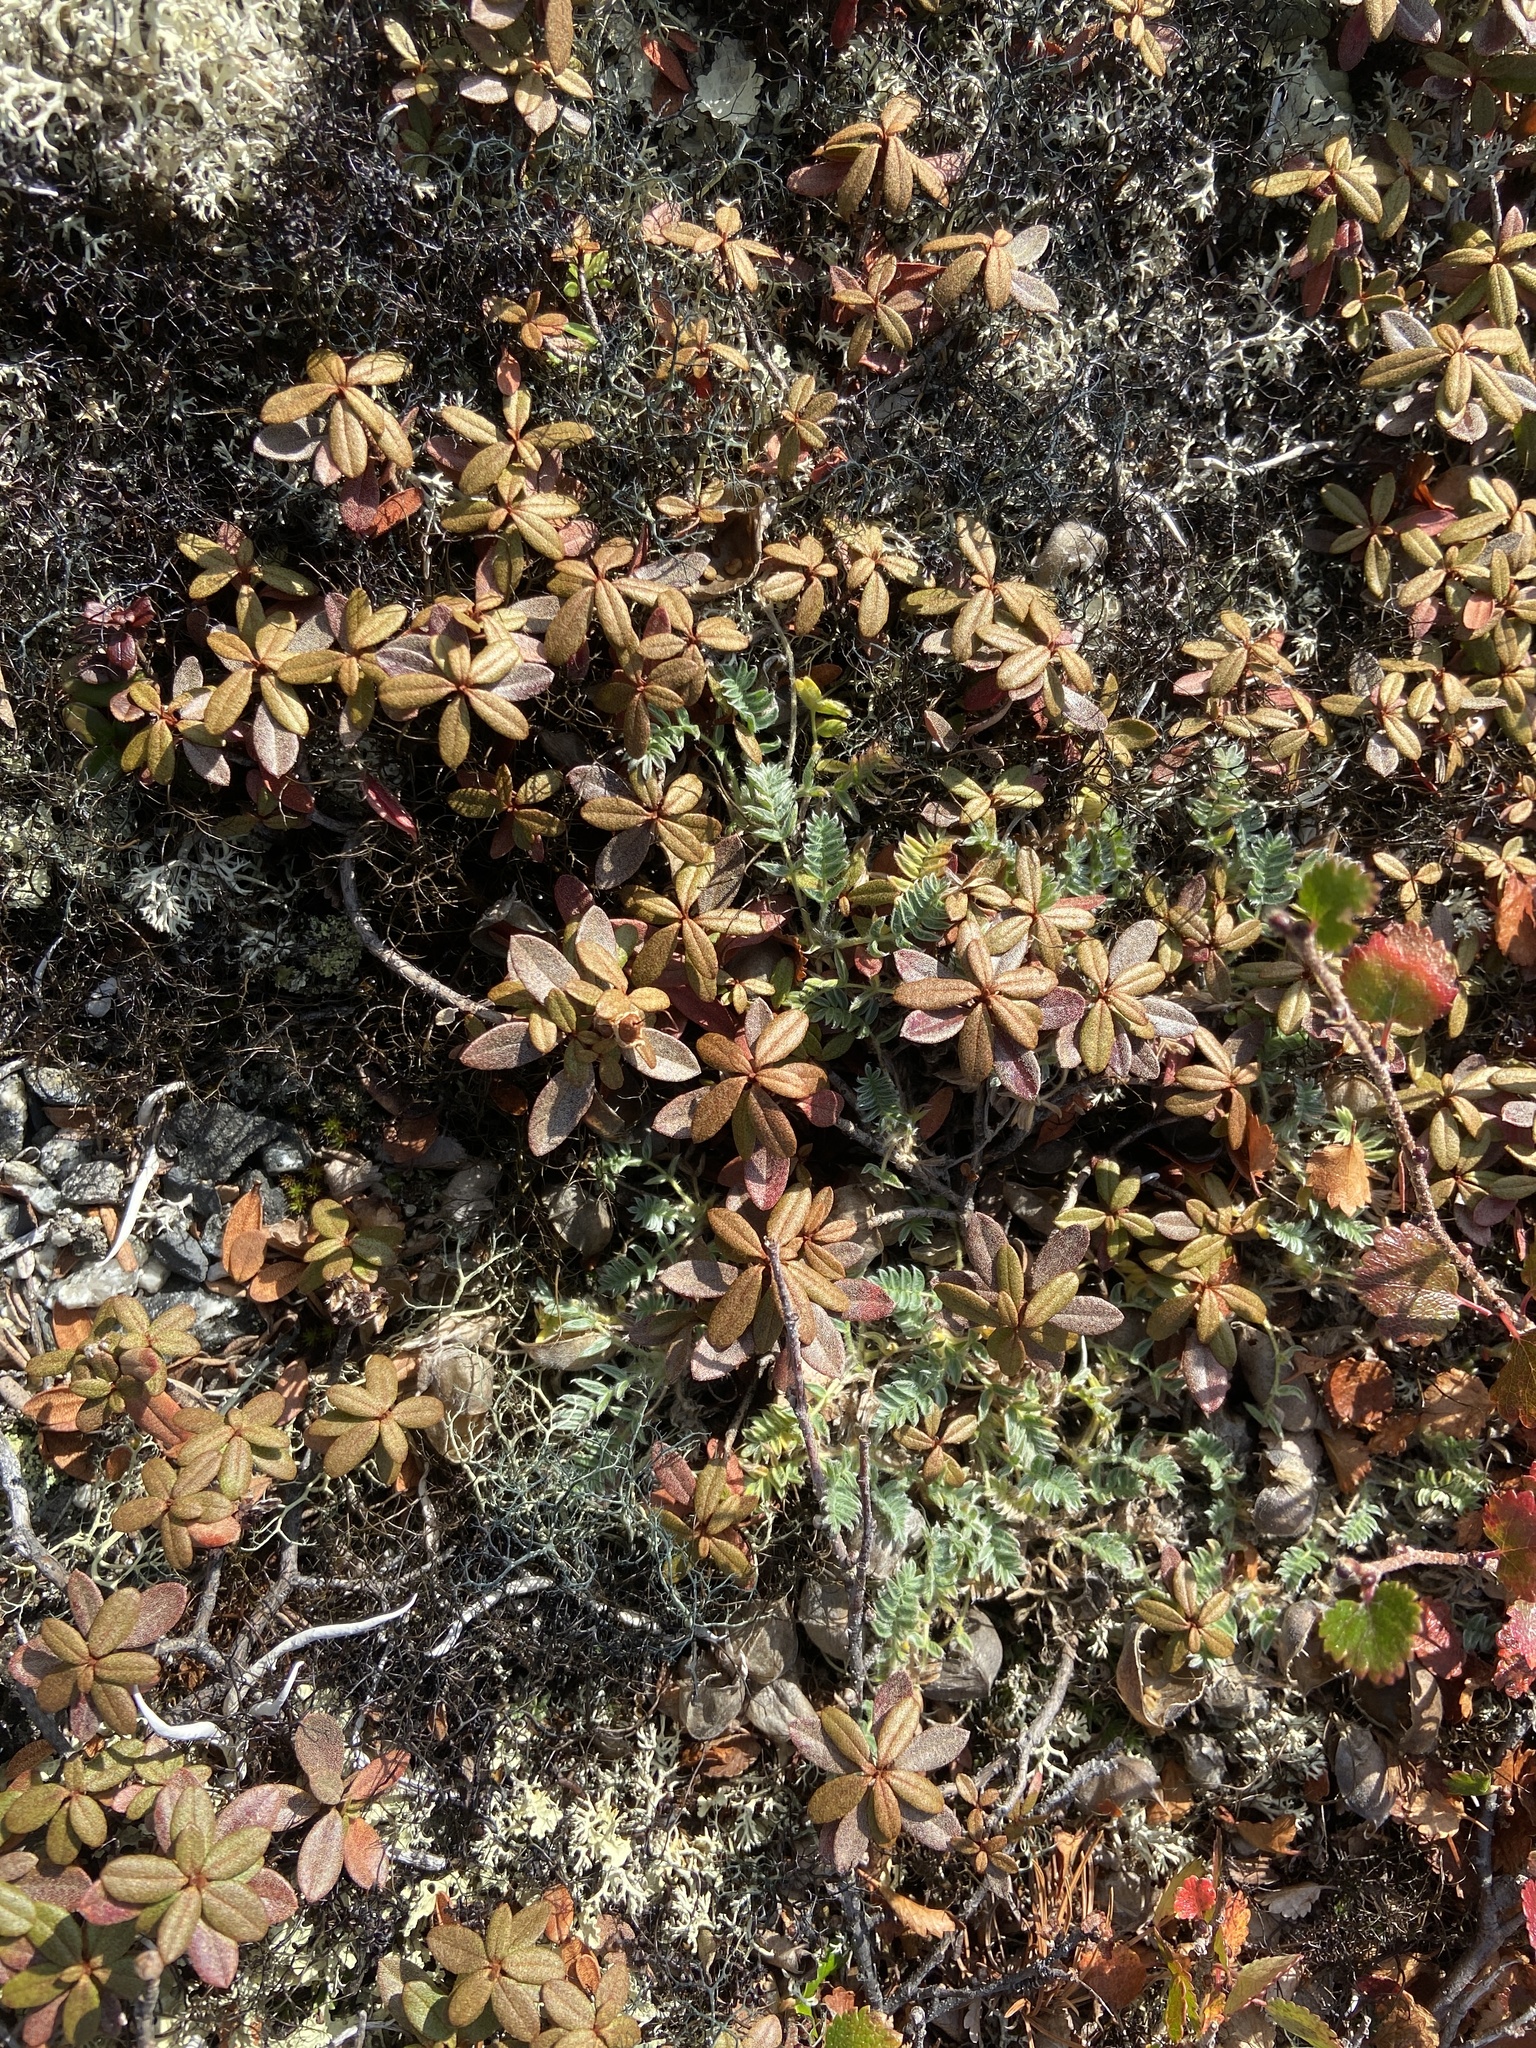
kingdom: Plantae
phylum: Tracheophyta
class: Magnoliopsida
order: Fabales
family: Fabaceae
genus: Oxytropis
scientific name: Oxytropis susumanica
